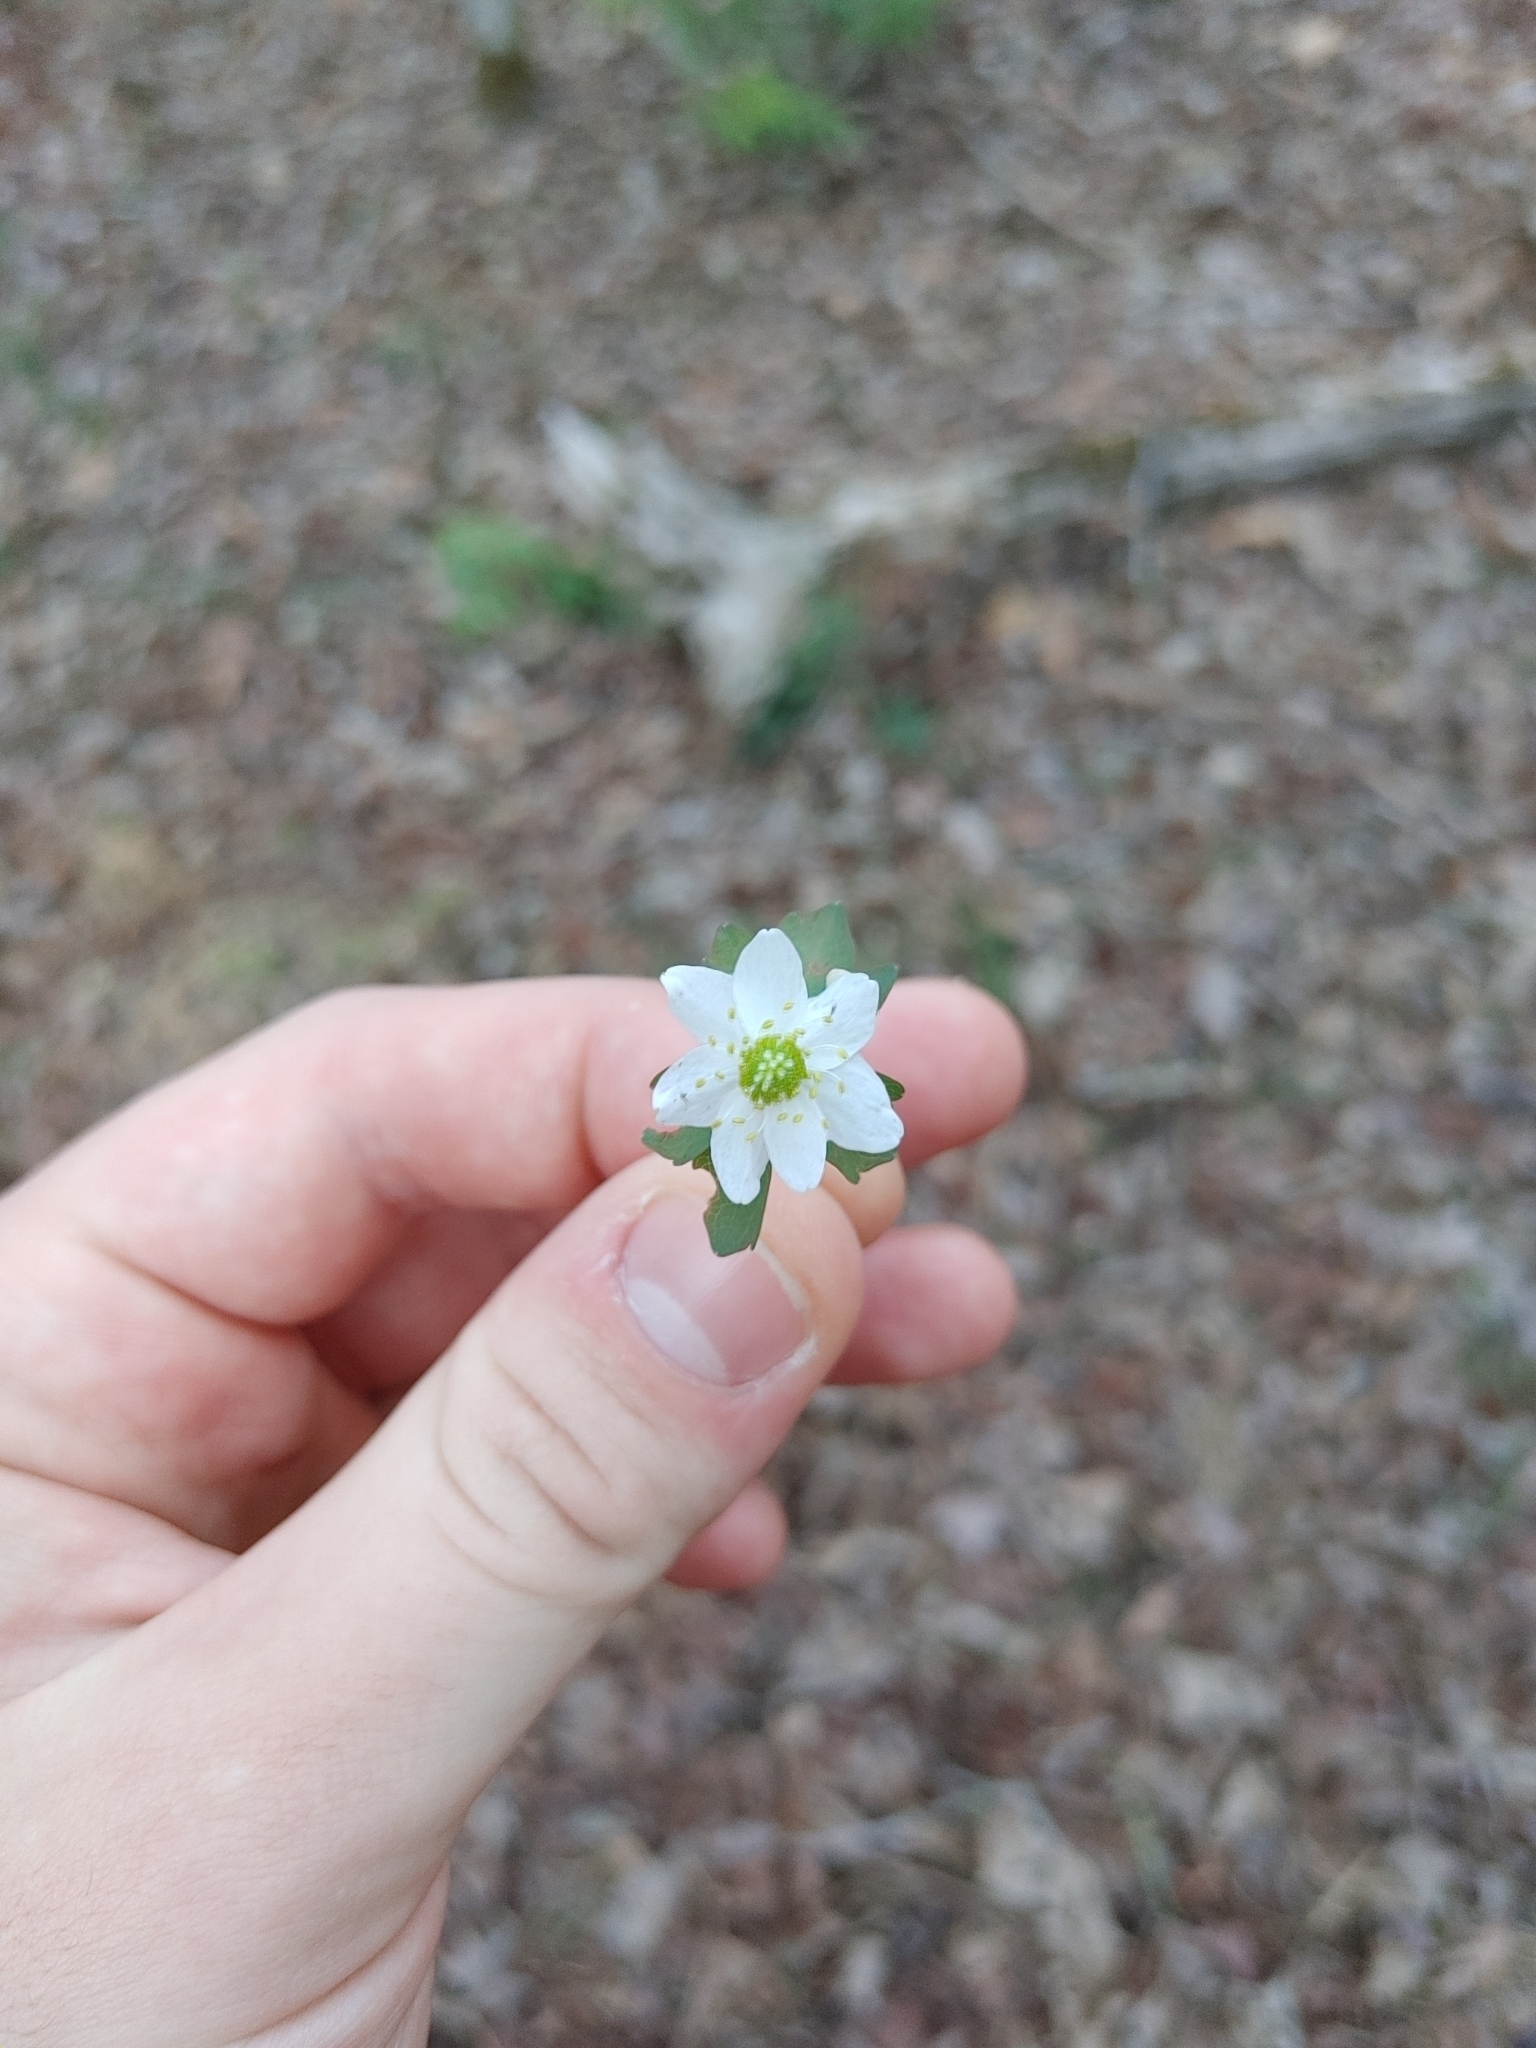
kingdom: Plantae
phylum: Tracheophyta
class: Magnoliopsida
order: Ranunculales
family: Ranunculaceae
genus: Thalictrum
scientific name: Thalictrum thalictroides
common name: Rue-anemone
